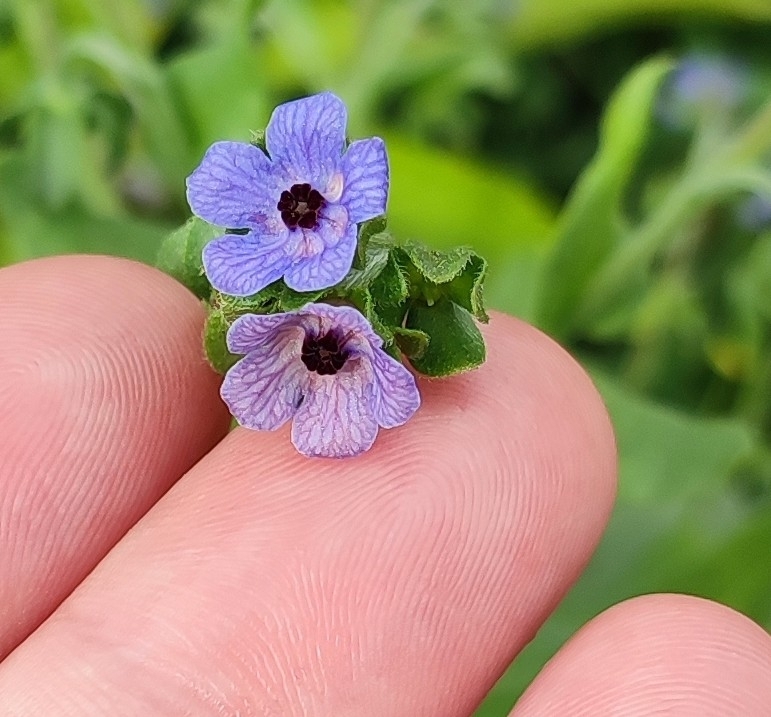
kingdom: Plantae
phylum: Tracheophyta
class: Magnoliopsida
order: Boraginales
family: Boraginaceae
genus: Cynoglossum
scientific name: Cynoglossum creticum
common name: Blue hound's tongue
